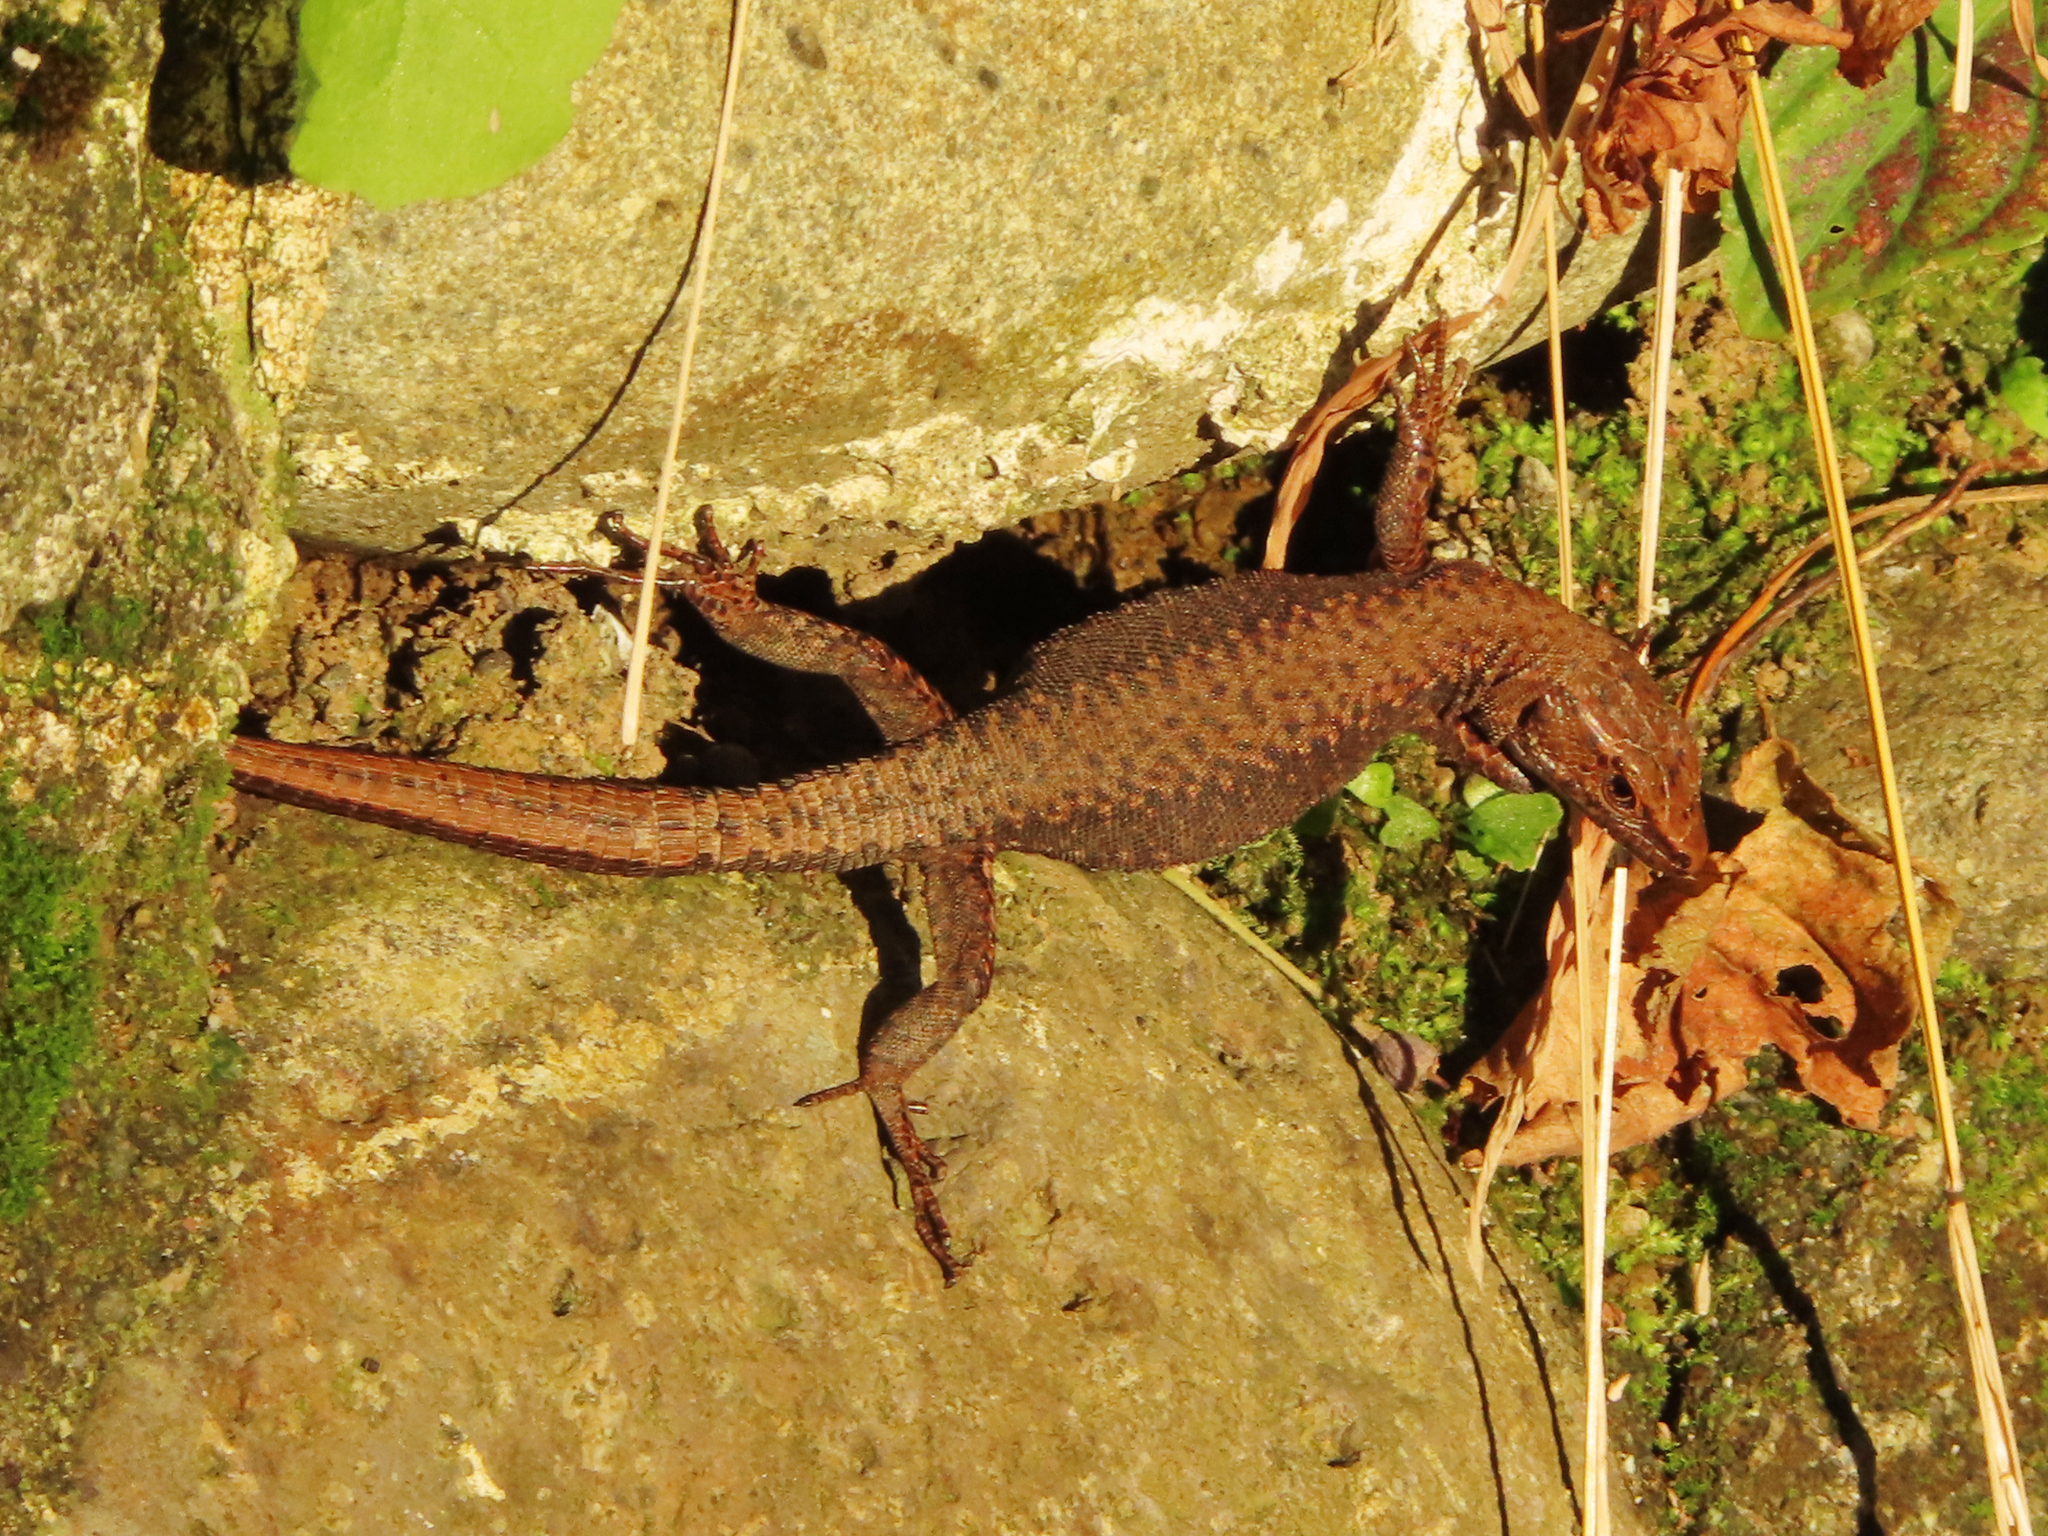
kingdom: Animalia
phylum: Chordata
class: Squamata
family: Lacertidae
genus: Darevskia
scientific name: Darevskia derjugini
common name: Derjugin's lizard
